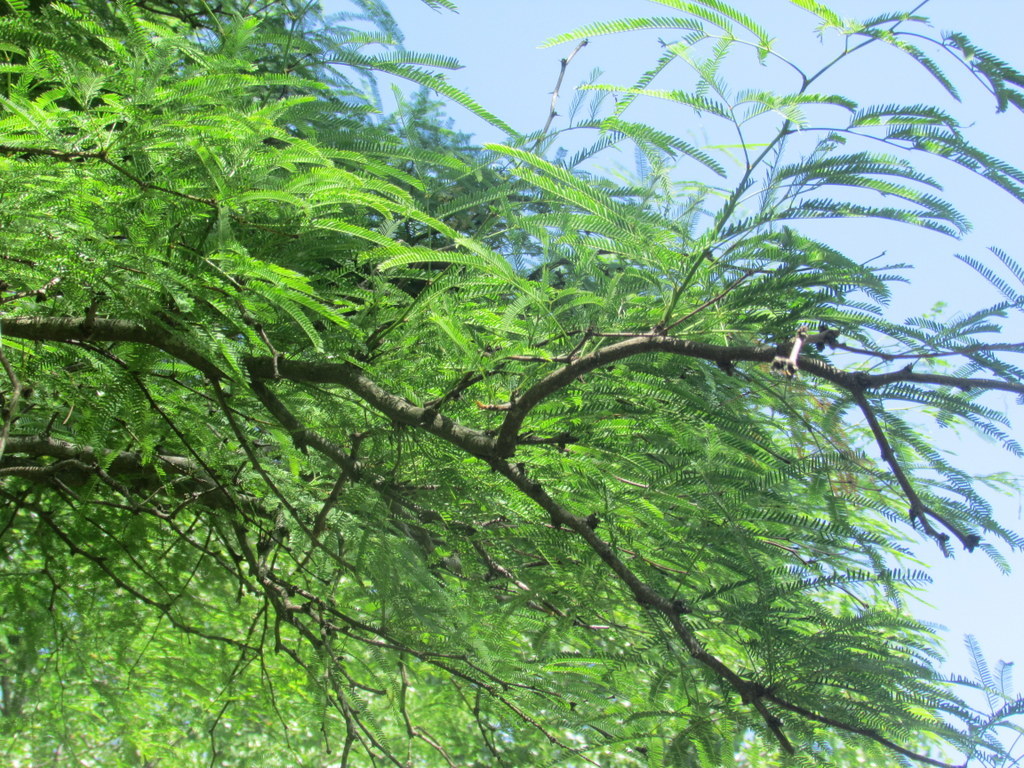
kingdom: Plantae
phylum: Tracheophyta
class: Magnoliopsida
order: Fabales
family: Fabaceae
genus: Prosopis
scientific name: Prosopis alba
